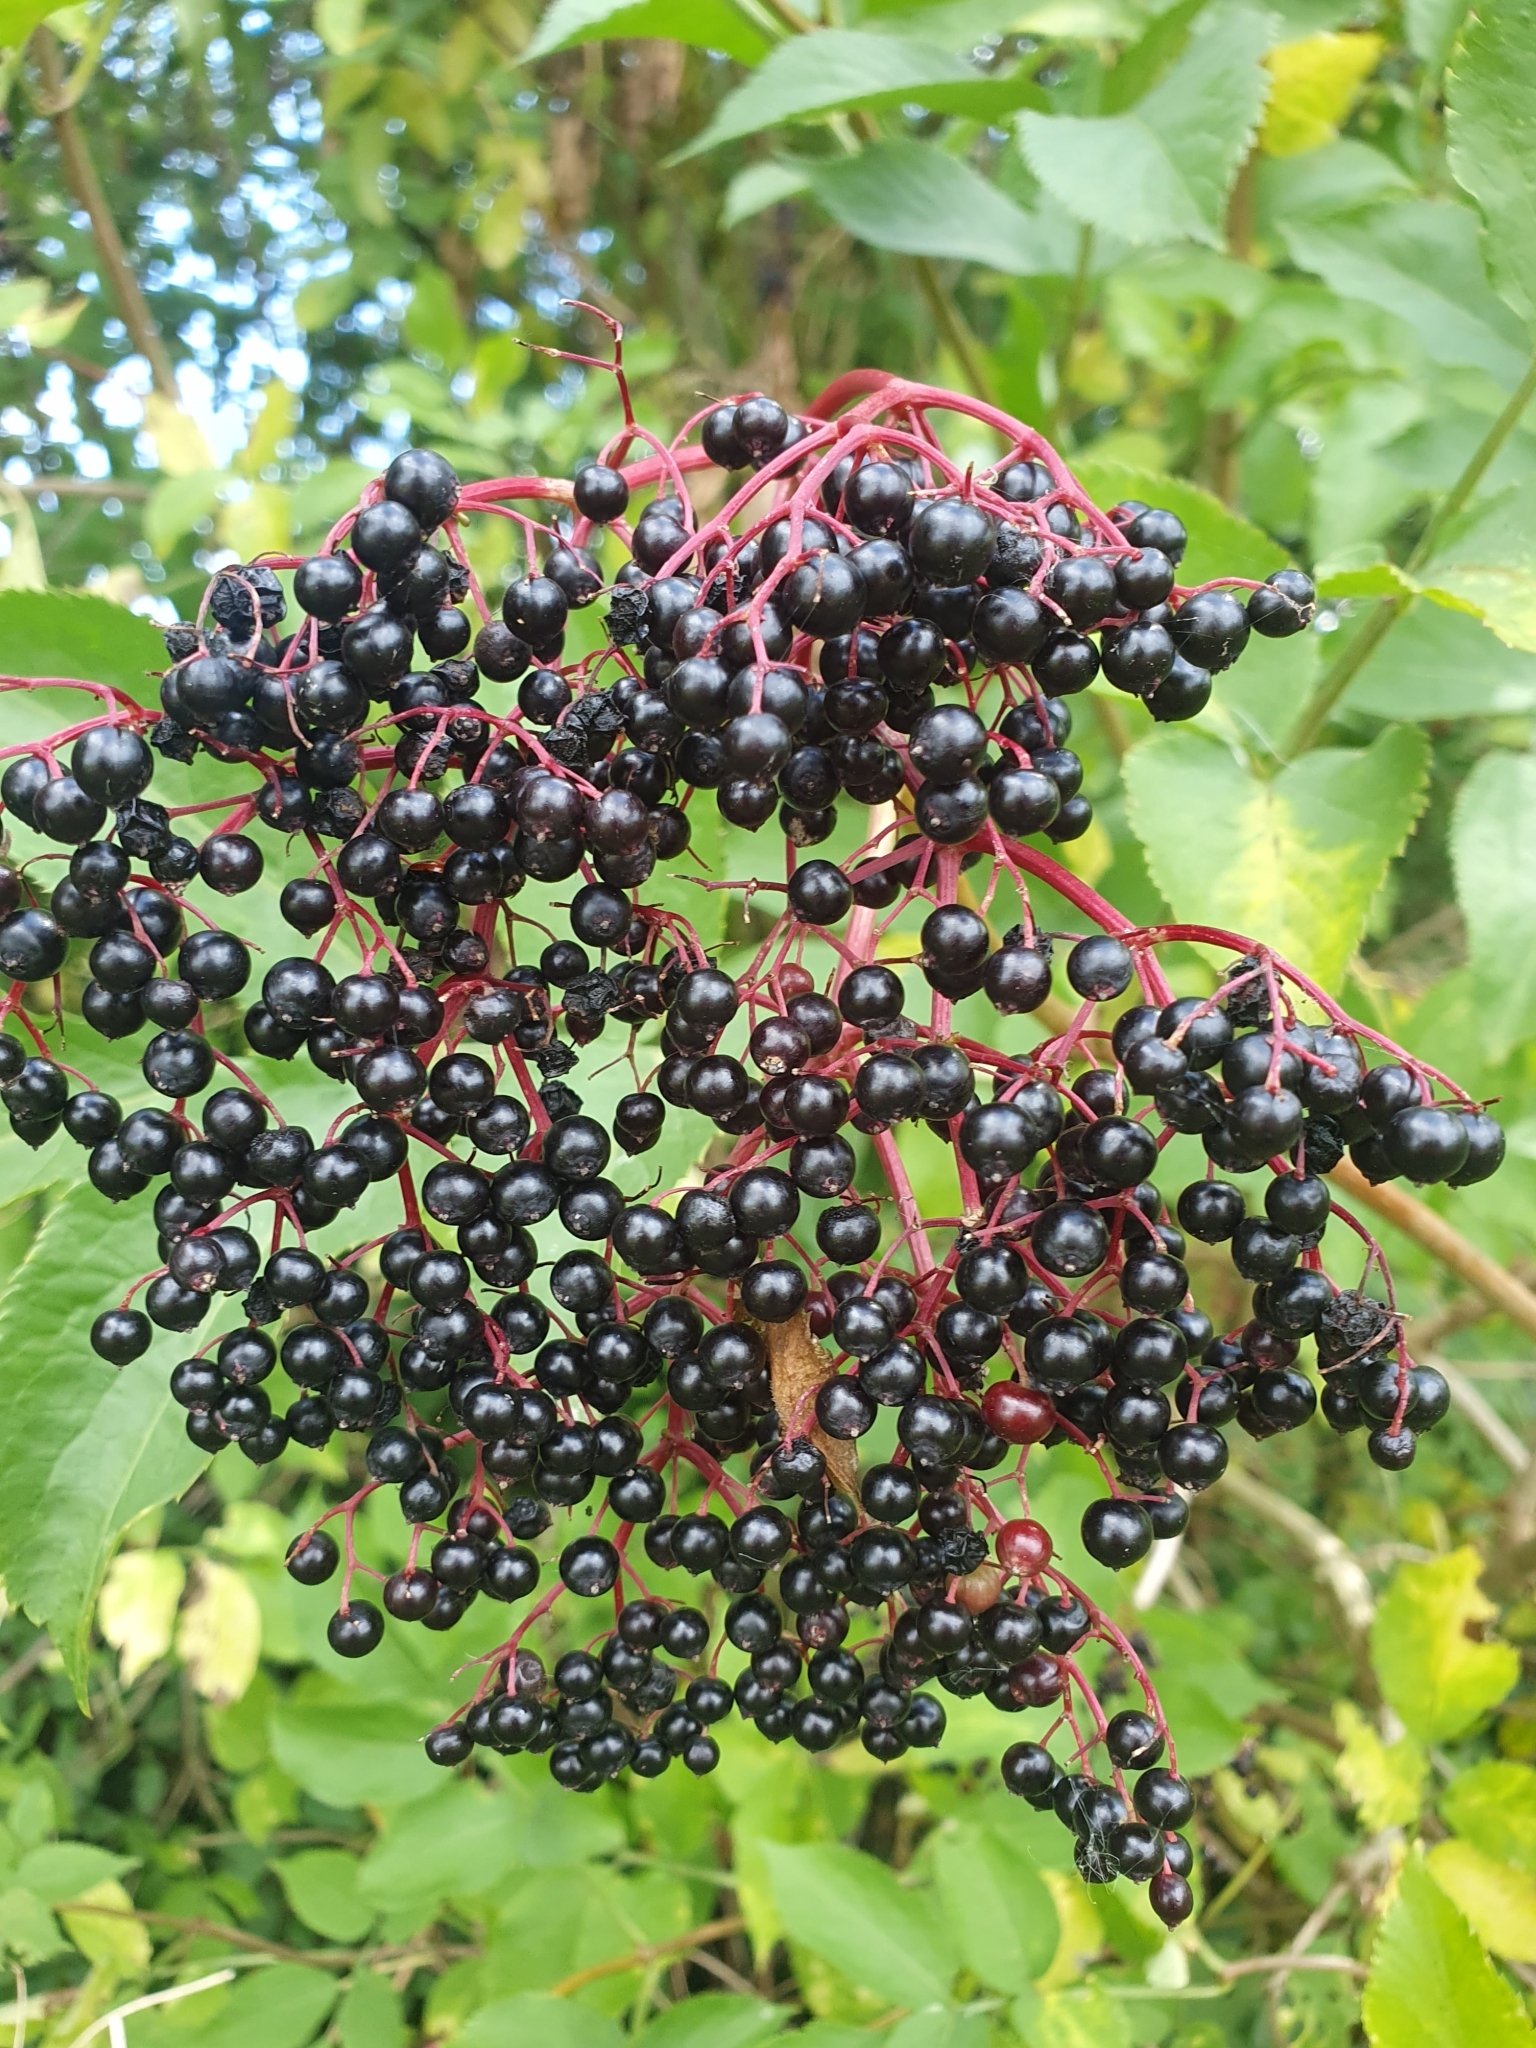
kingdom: Plantae
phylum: Tracheophyta
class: Magnoliopsida
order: Dipsacales
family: Viburnaceae
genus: Sambucus
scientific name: Sambucus nigra
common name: Elder
